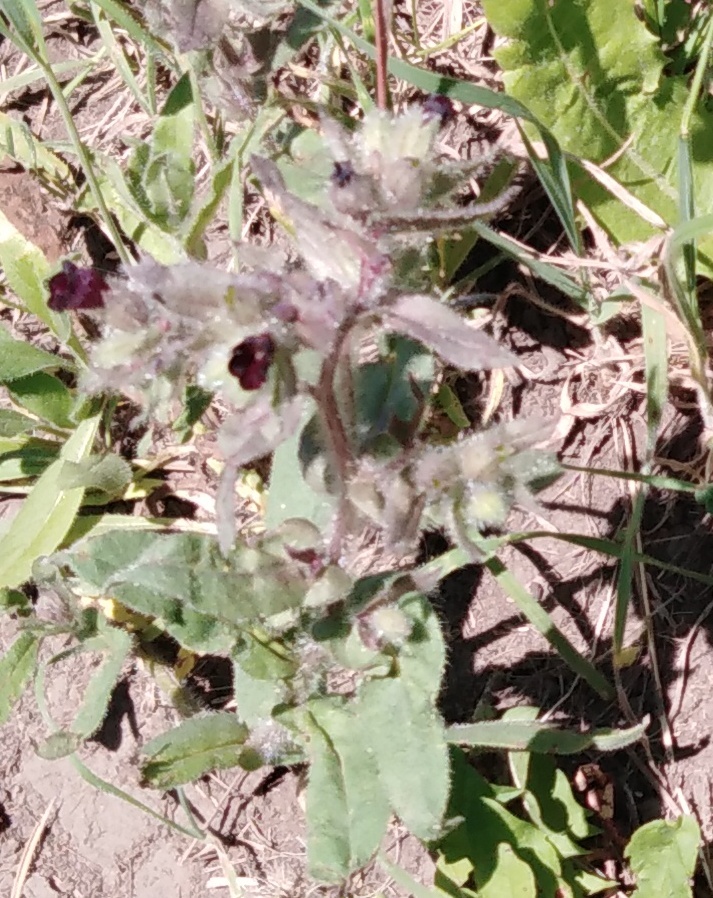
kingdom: Plantae
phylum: Tracheophyta
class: Magnoliopsida
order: Boraginales
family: Boraginaceae
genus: Nonea
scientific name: Nonea pulla
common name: Brown nonea
